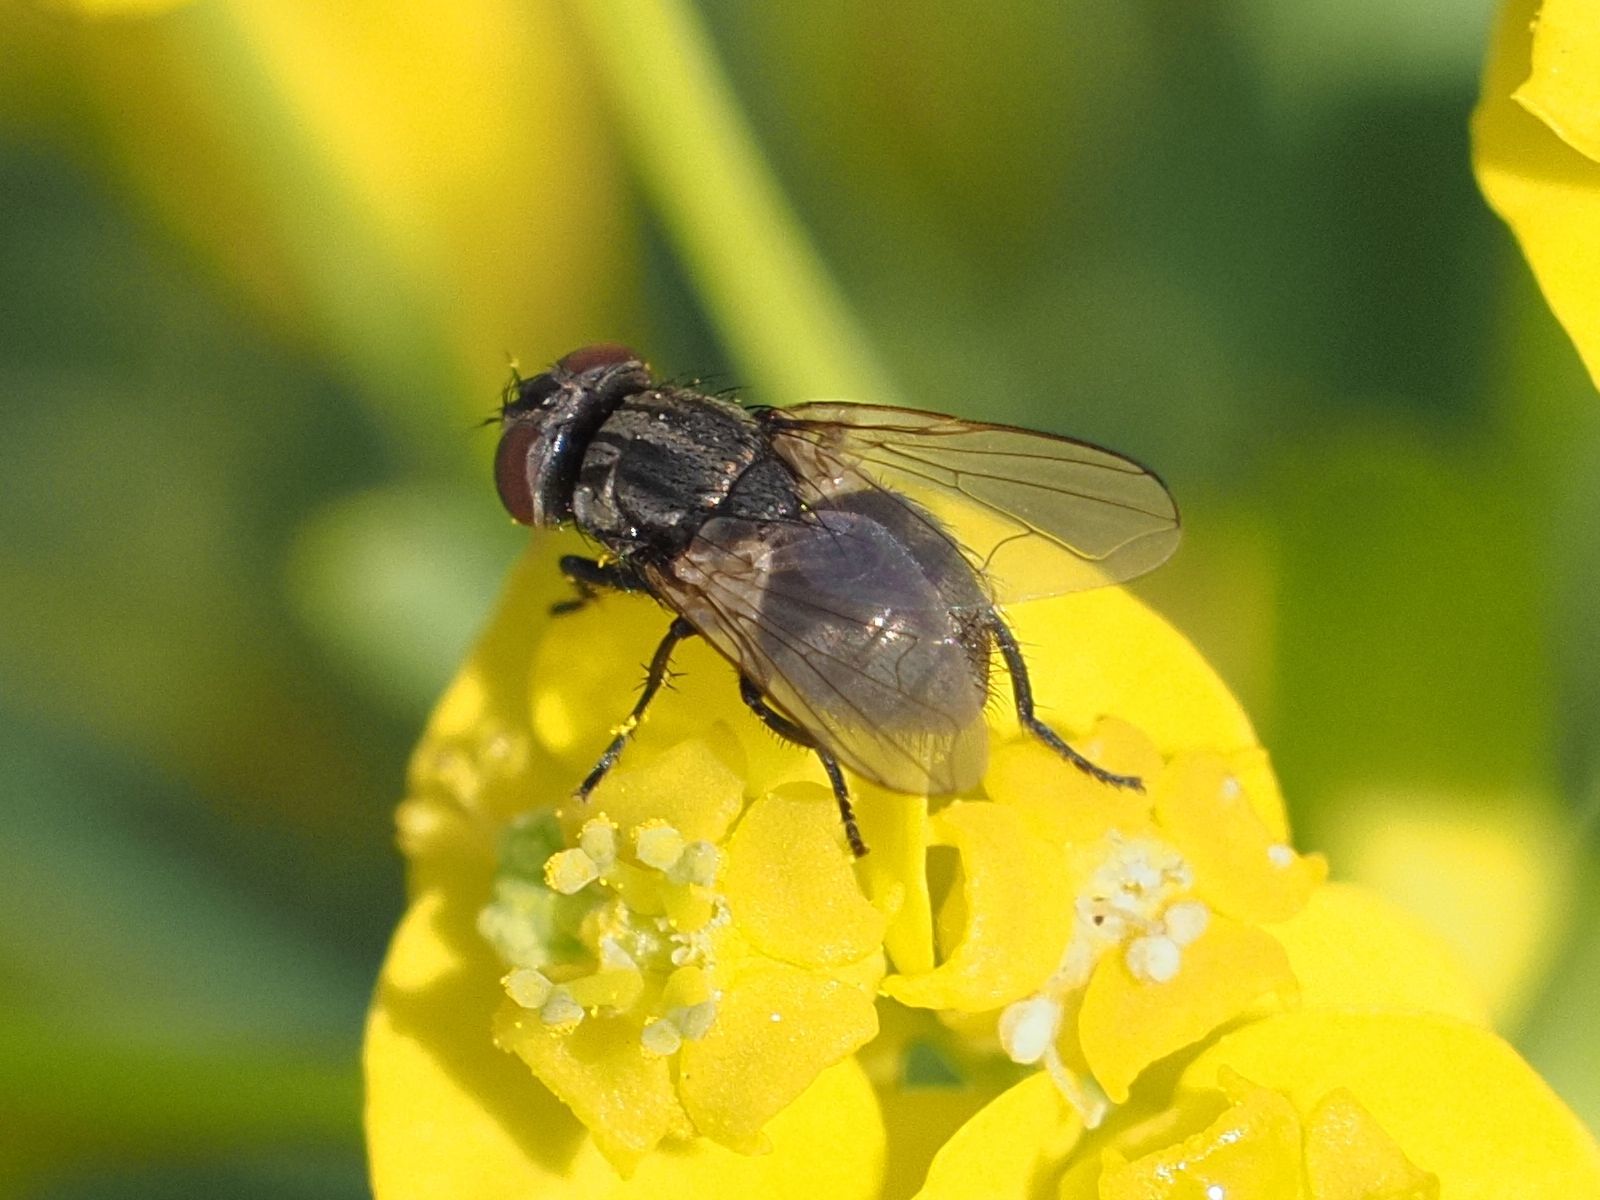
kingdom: Animalia
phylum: Arthropoda
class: Insecta
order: Diptera
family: Muscidae
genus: Musca
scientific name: Musca tempestiva
